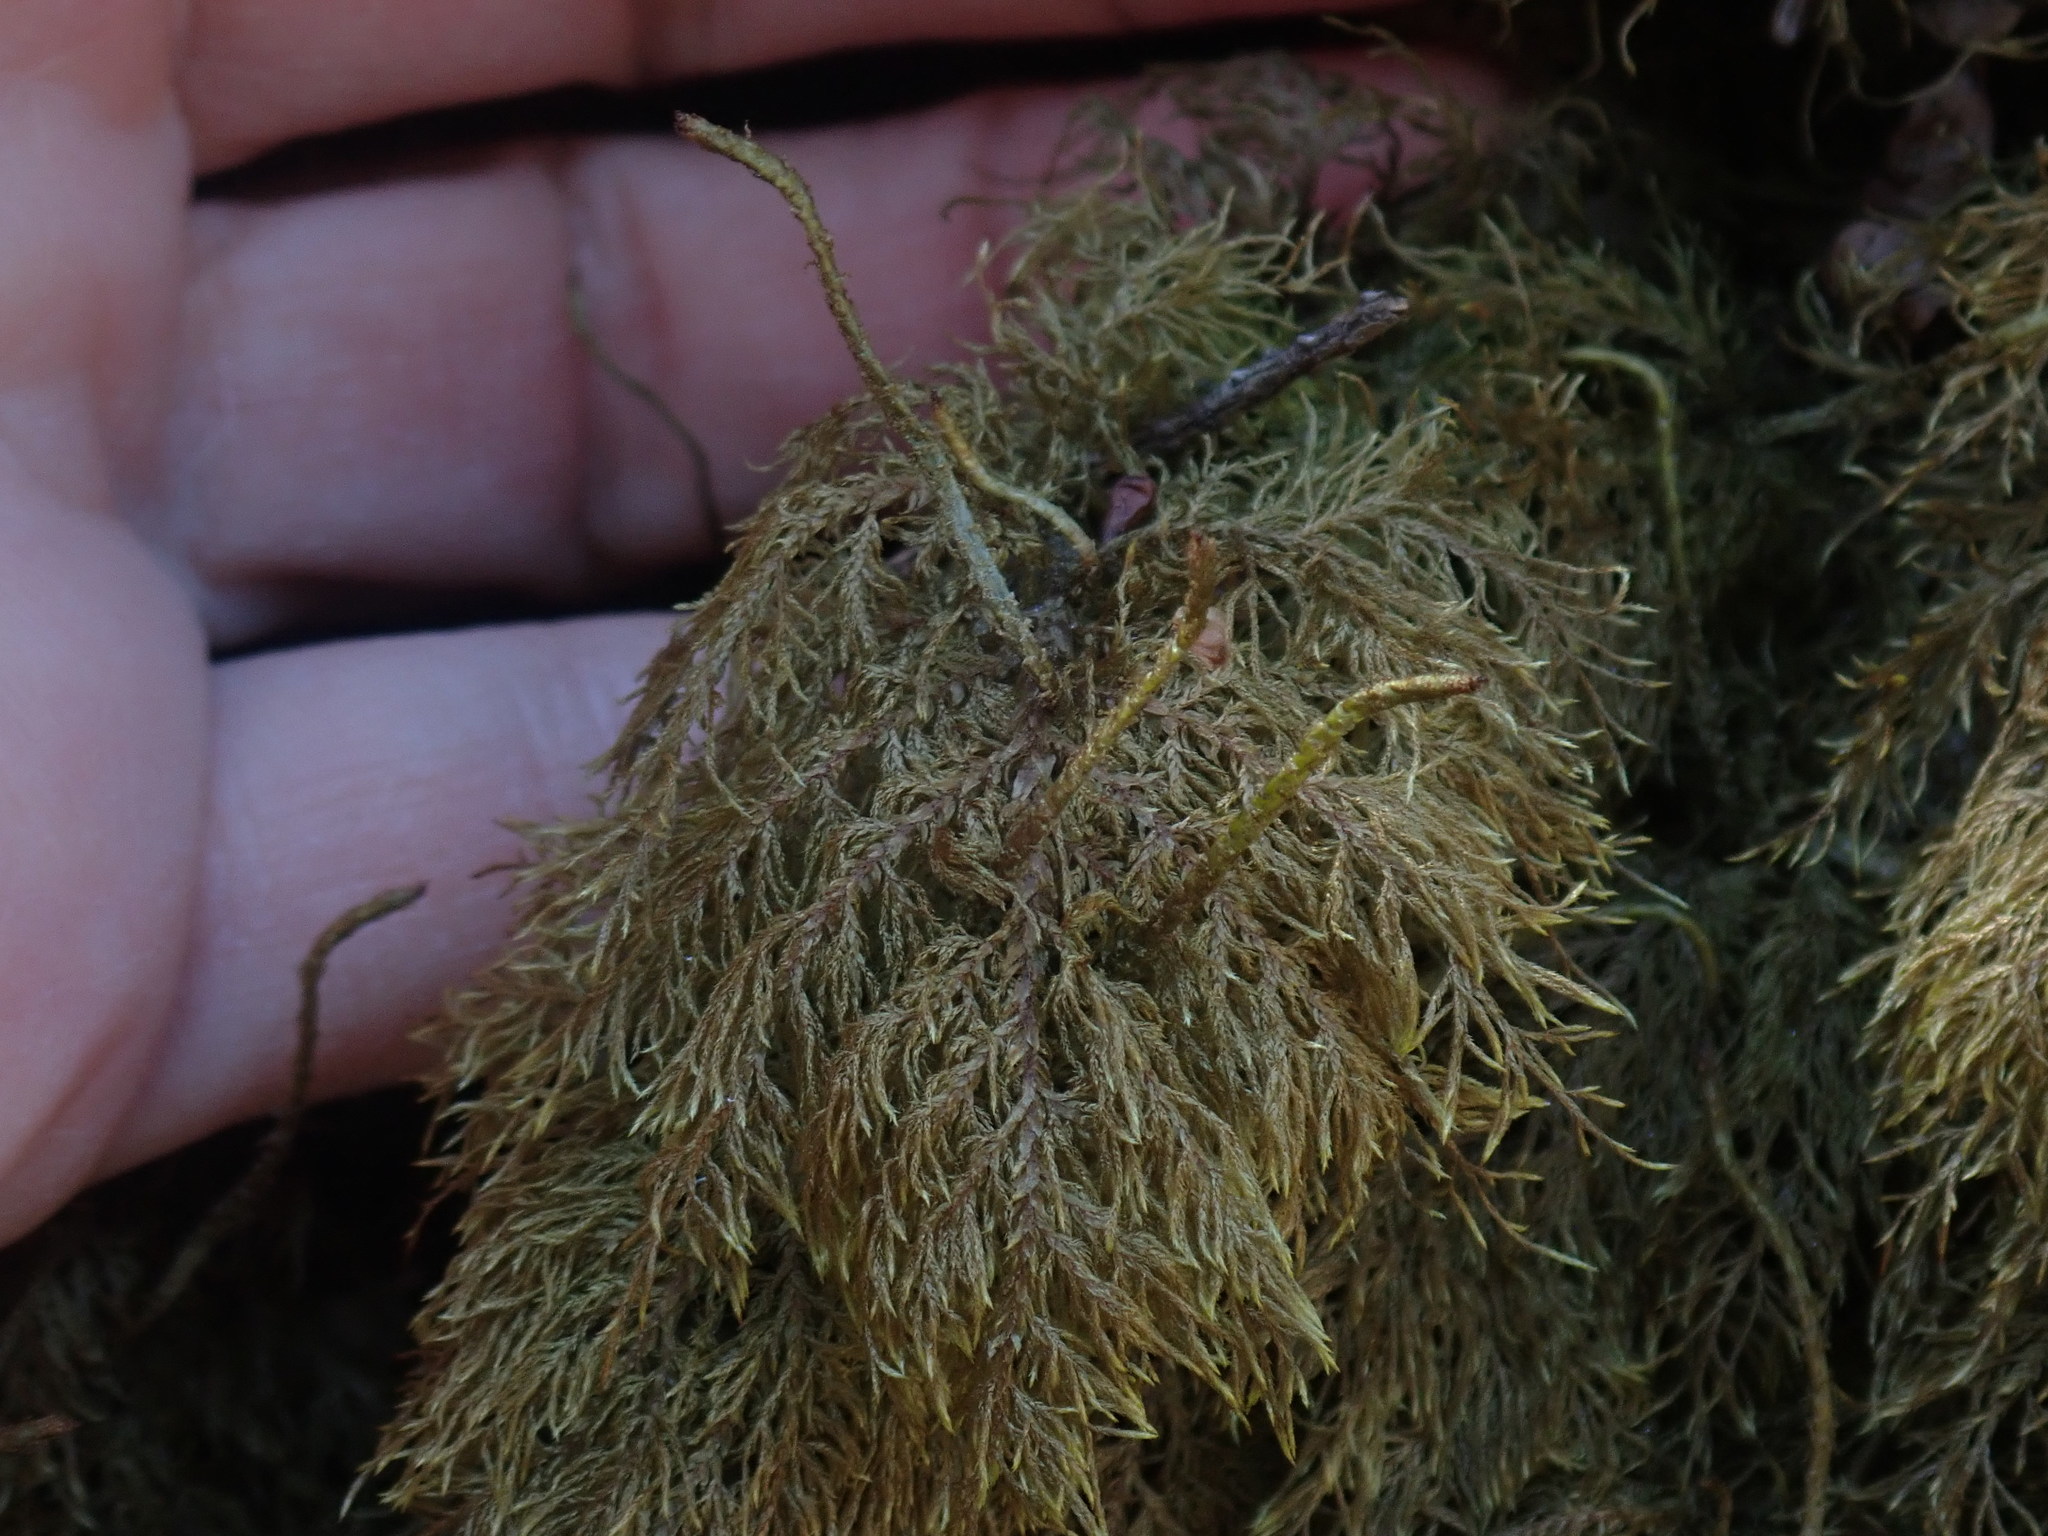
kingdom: Plantae
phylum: Bryophyta
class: Bryopsida
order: Hypnales
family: Hylocomiaceae
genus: Hylocomium
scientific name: Hylocomium splendens
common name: Stairstep moss
